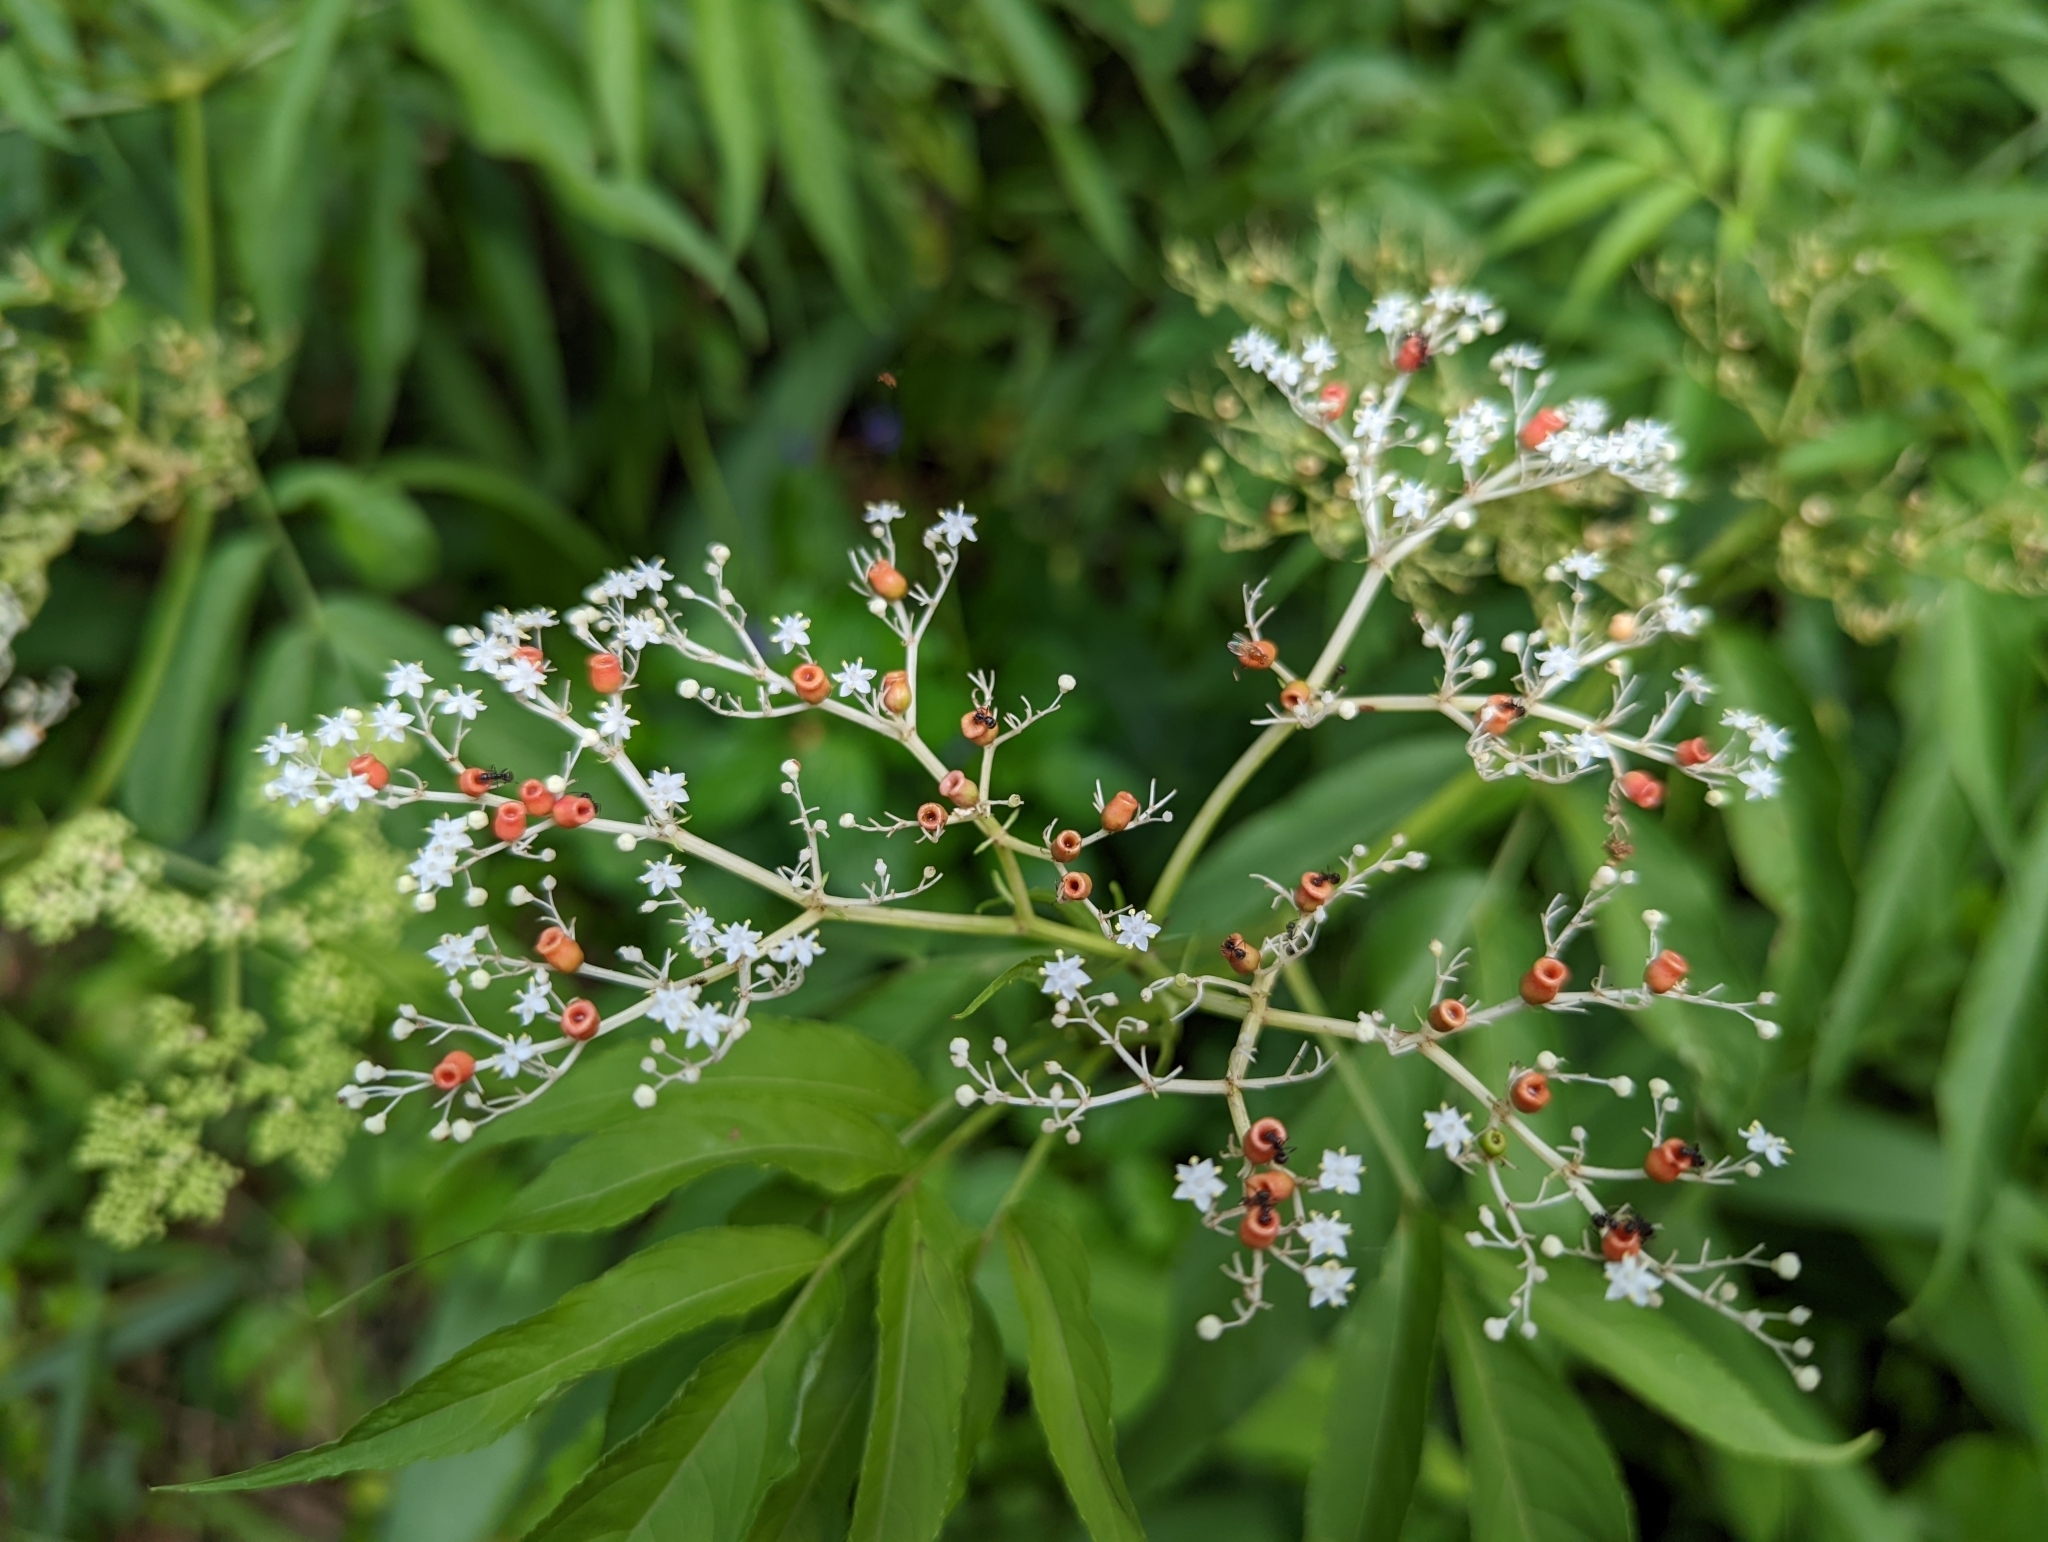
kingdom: Plantae
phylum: Tracheophyta
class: Magnoliopsida
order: Dipsacales
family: Viburnaceae
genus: Sambucus
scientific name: Sambucus javanica
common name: Chinese elder
